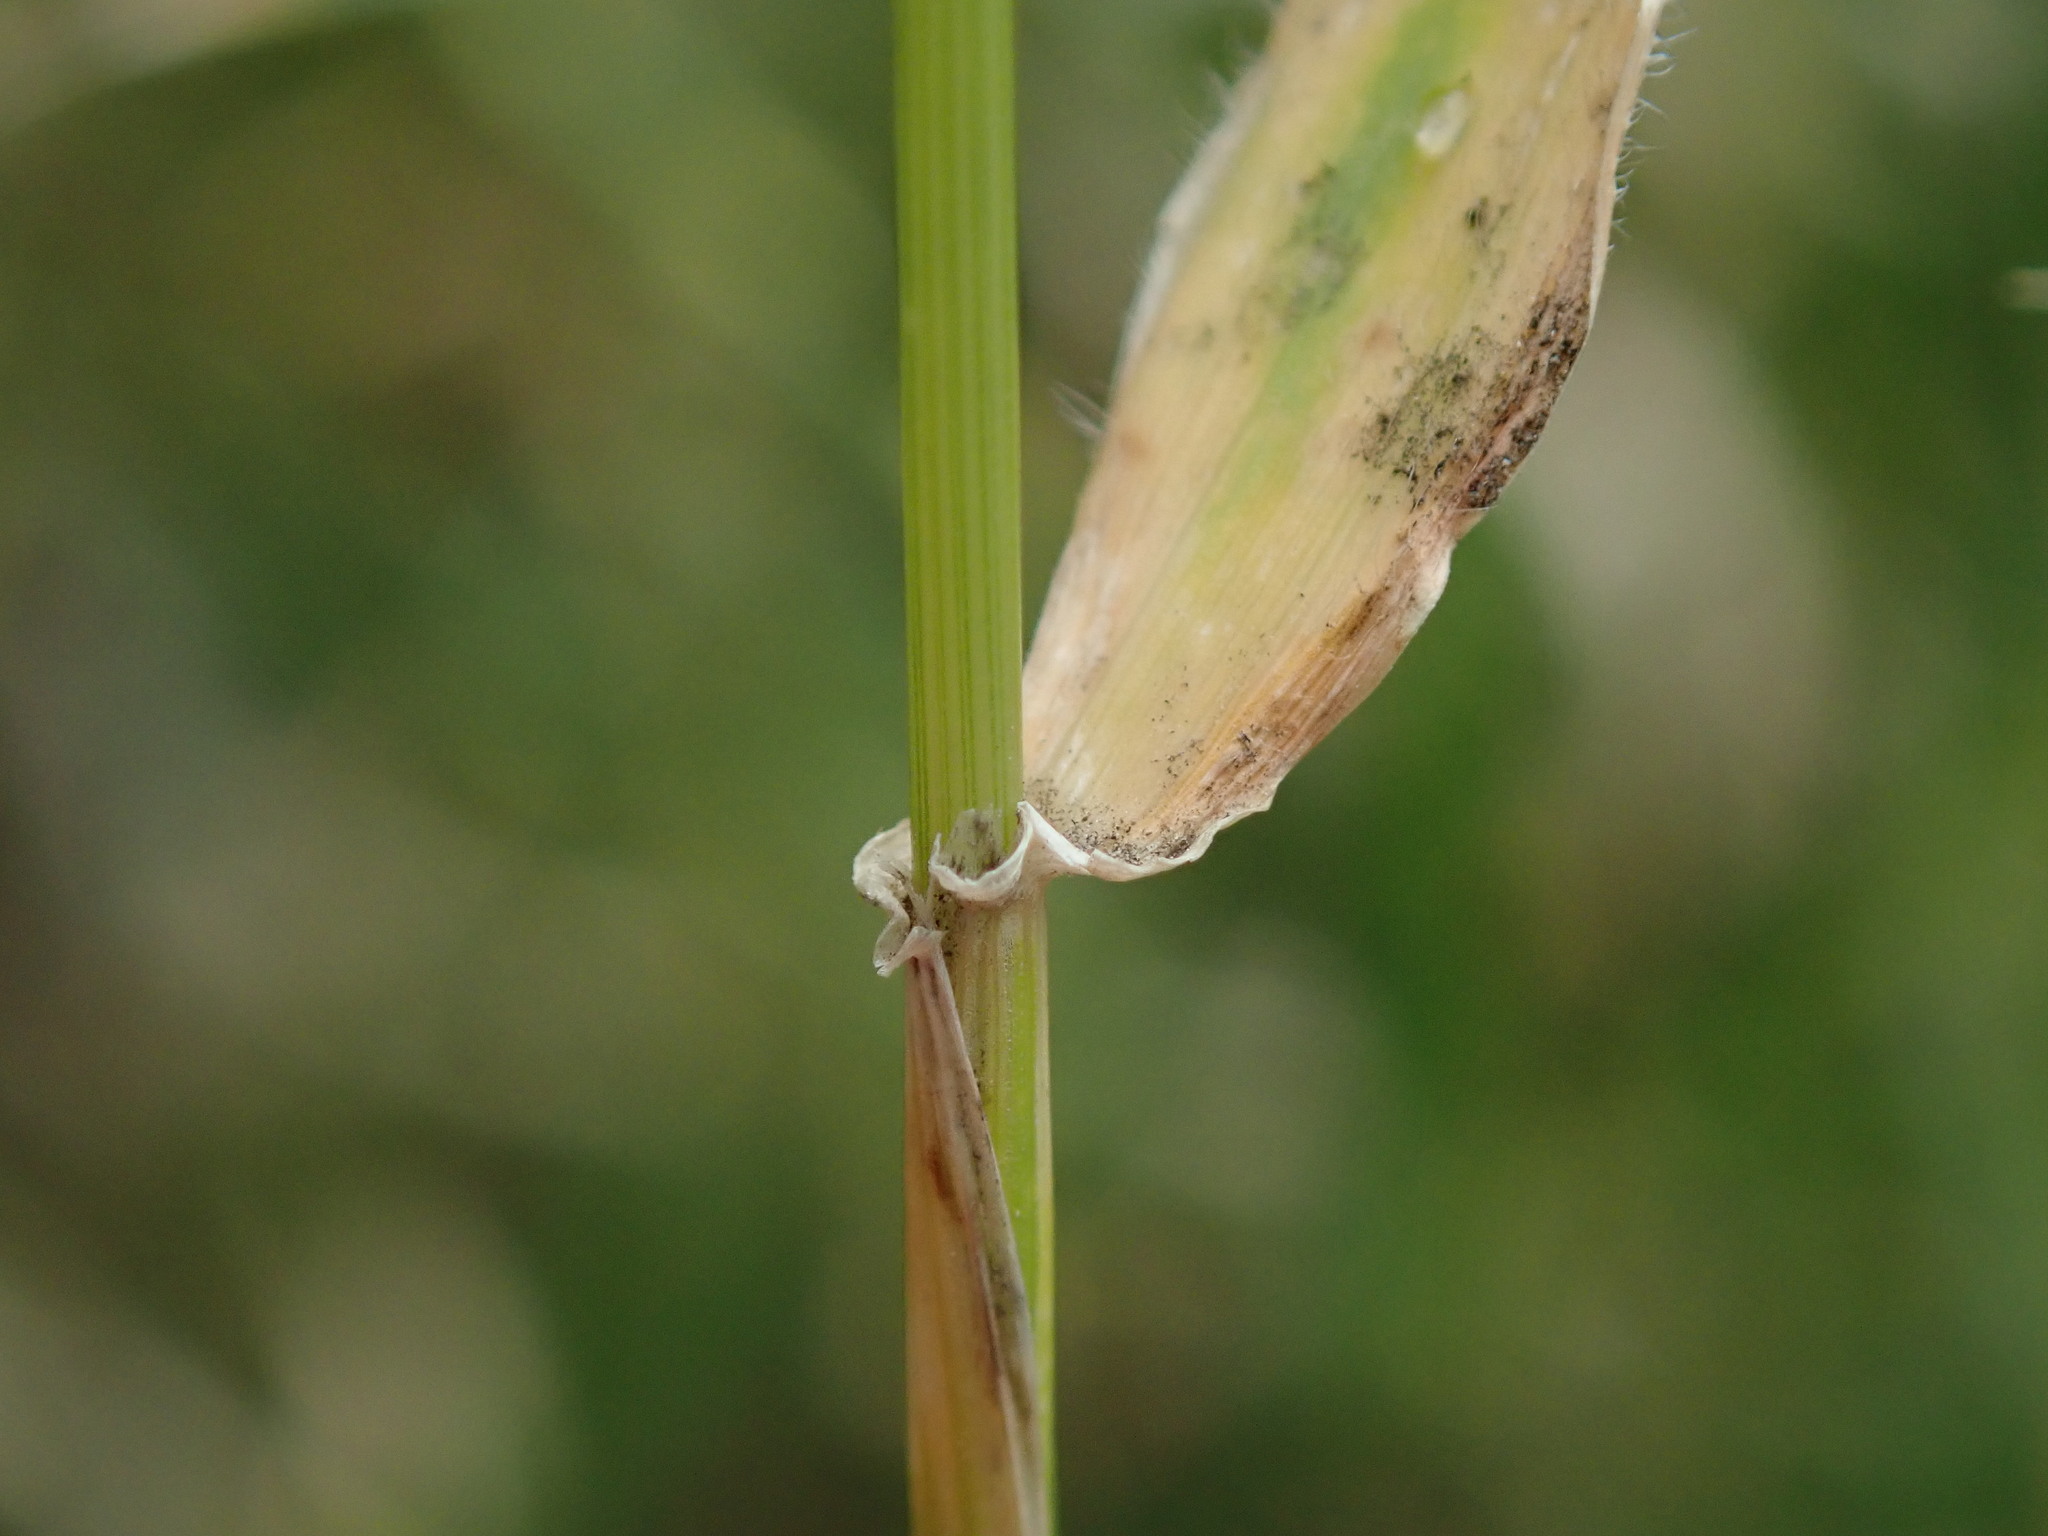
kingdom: Plantae
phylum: Tracheophyta
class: Liliopsida
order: Poales
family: Poaceae
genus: Hordeum
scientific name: Hordeum murinum
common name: Wall barley
